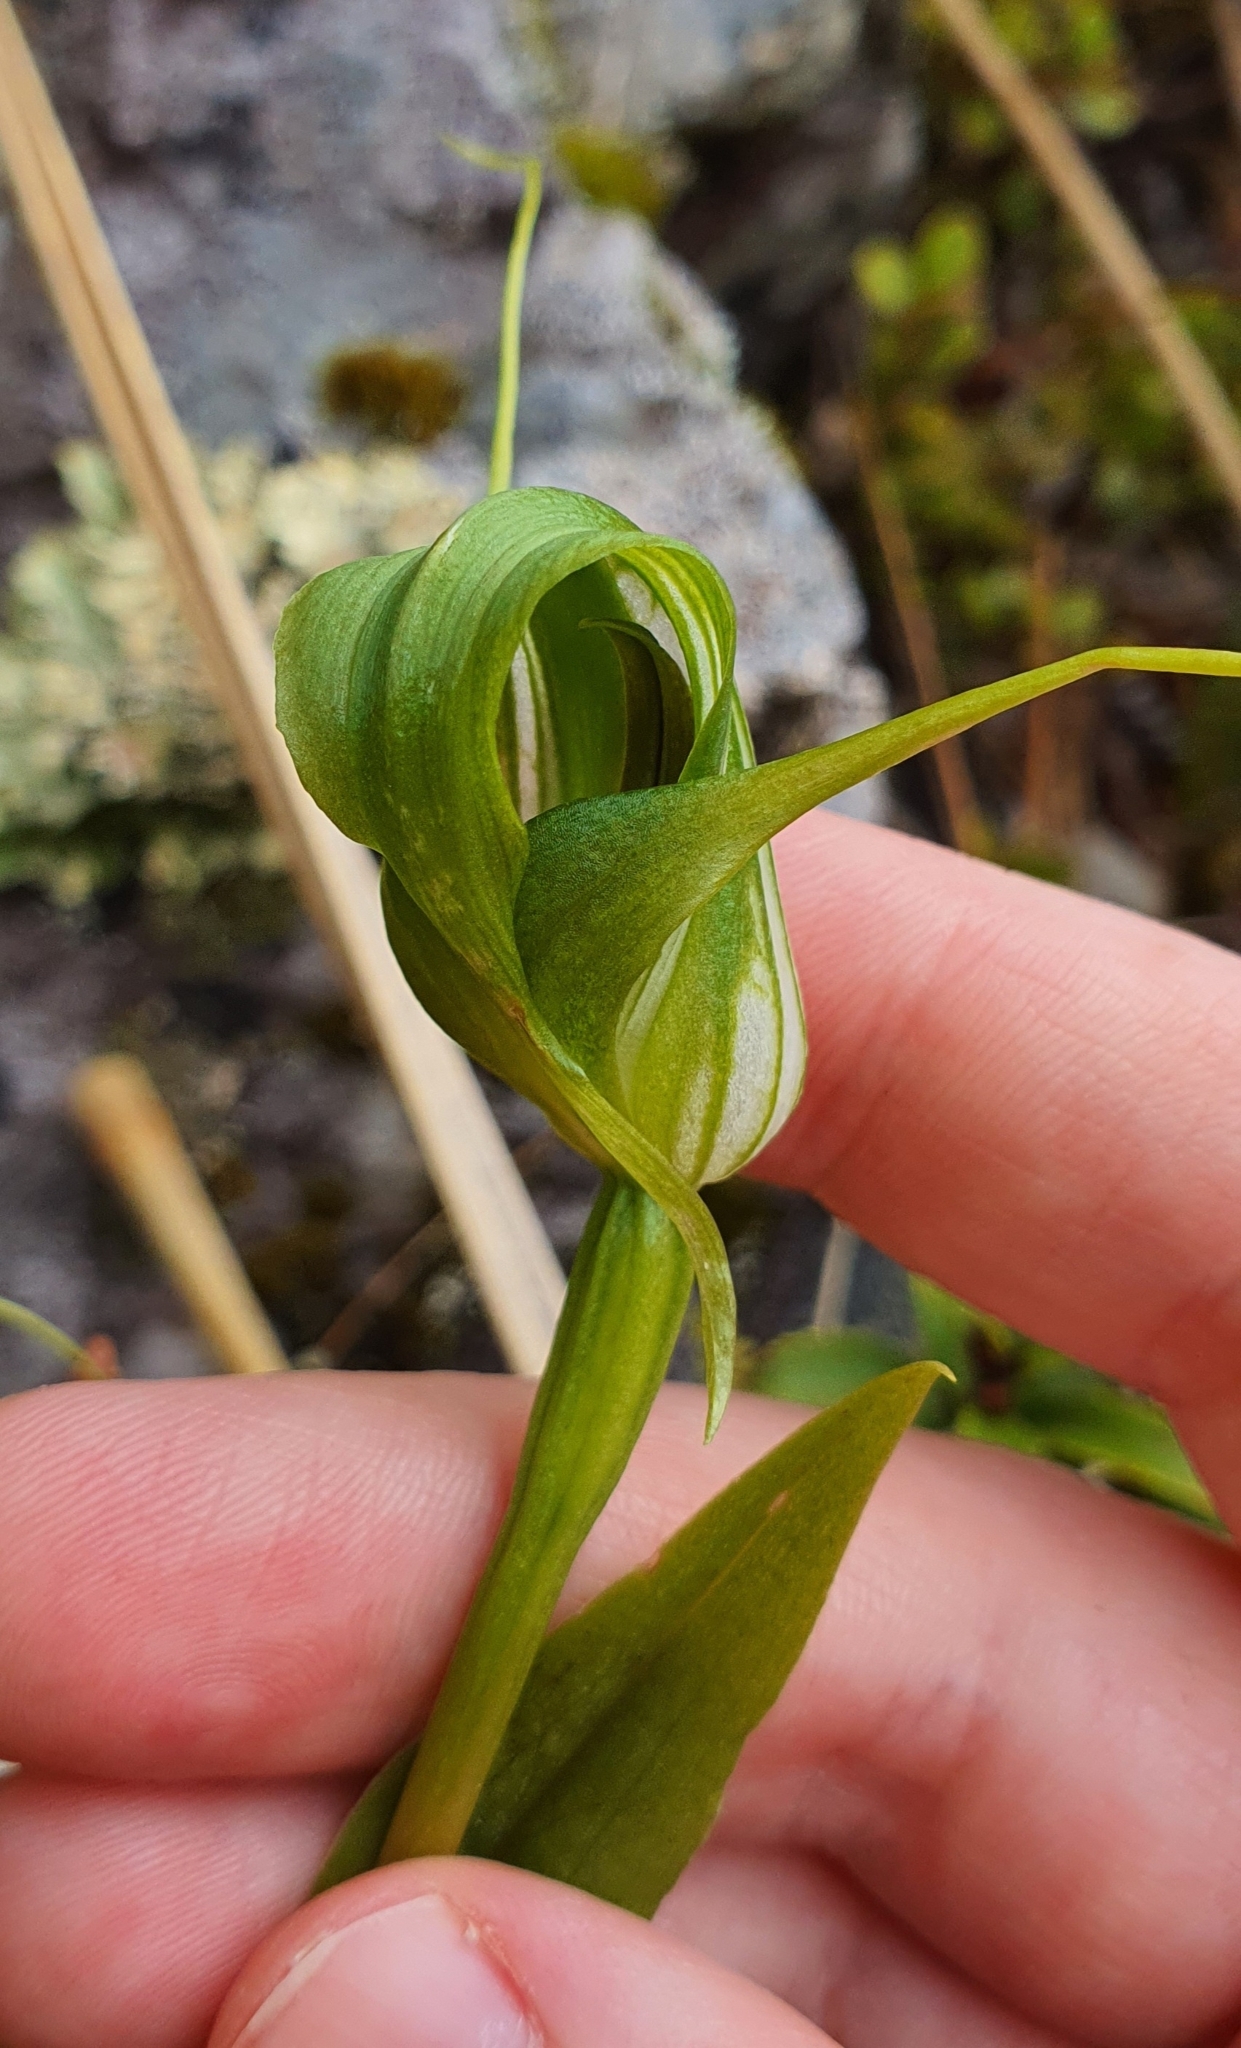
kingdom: Plantae
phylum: Tracheophyta
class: Liliopsida
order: Asparagales
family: Orchidaceae
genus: Pterostylis
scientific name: Pterostylis oliveri
